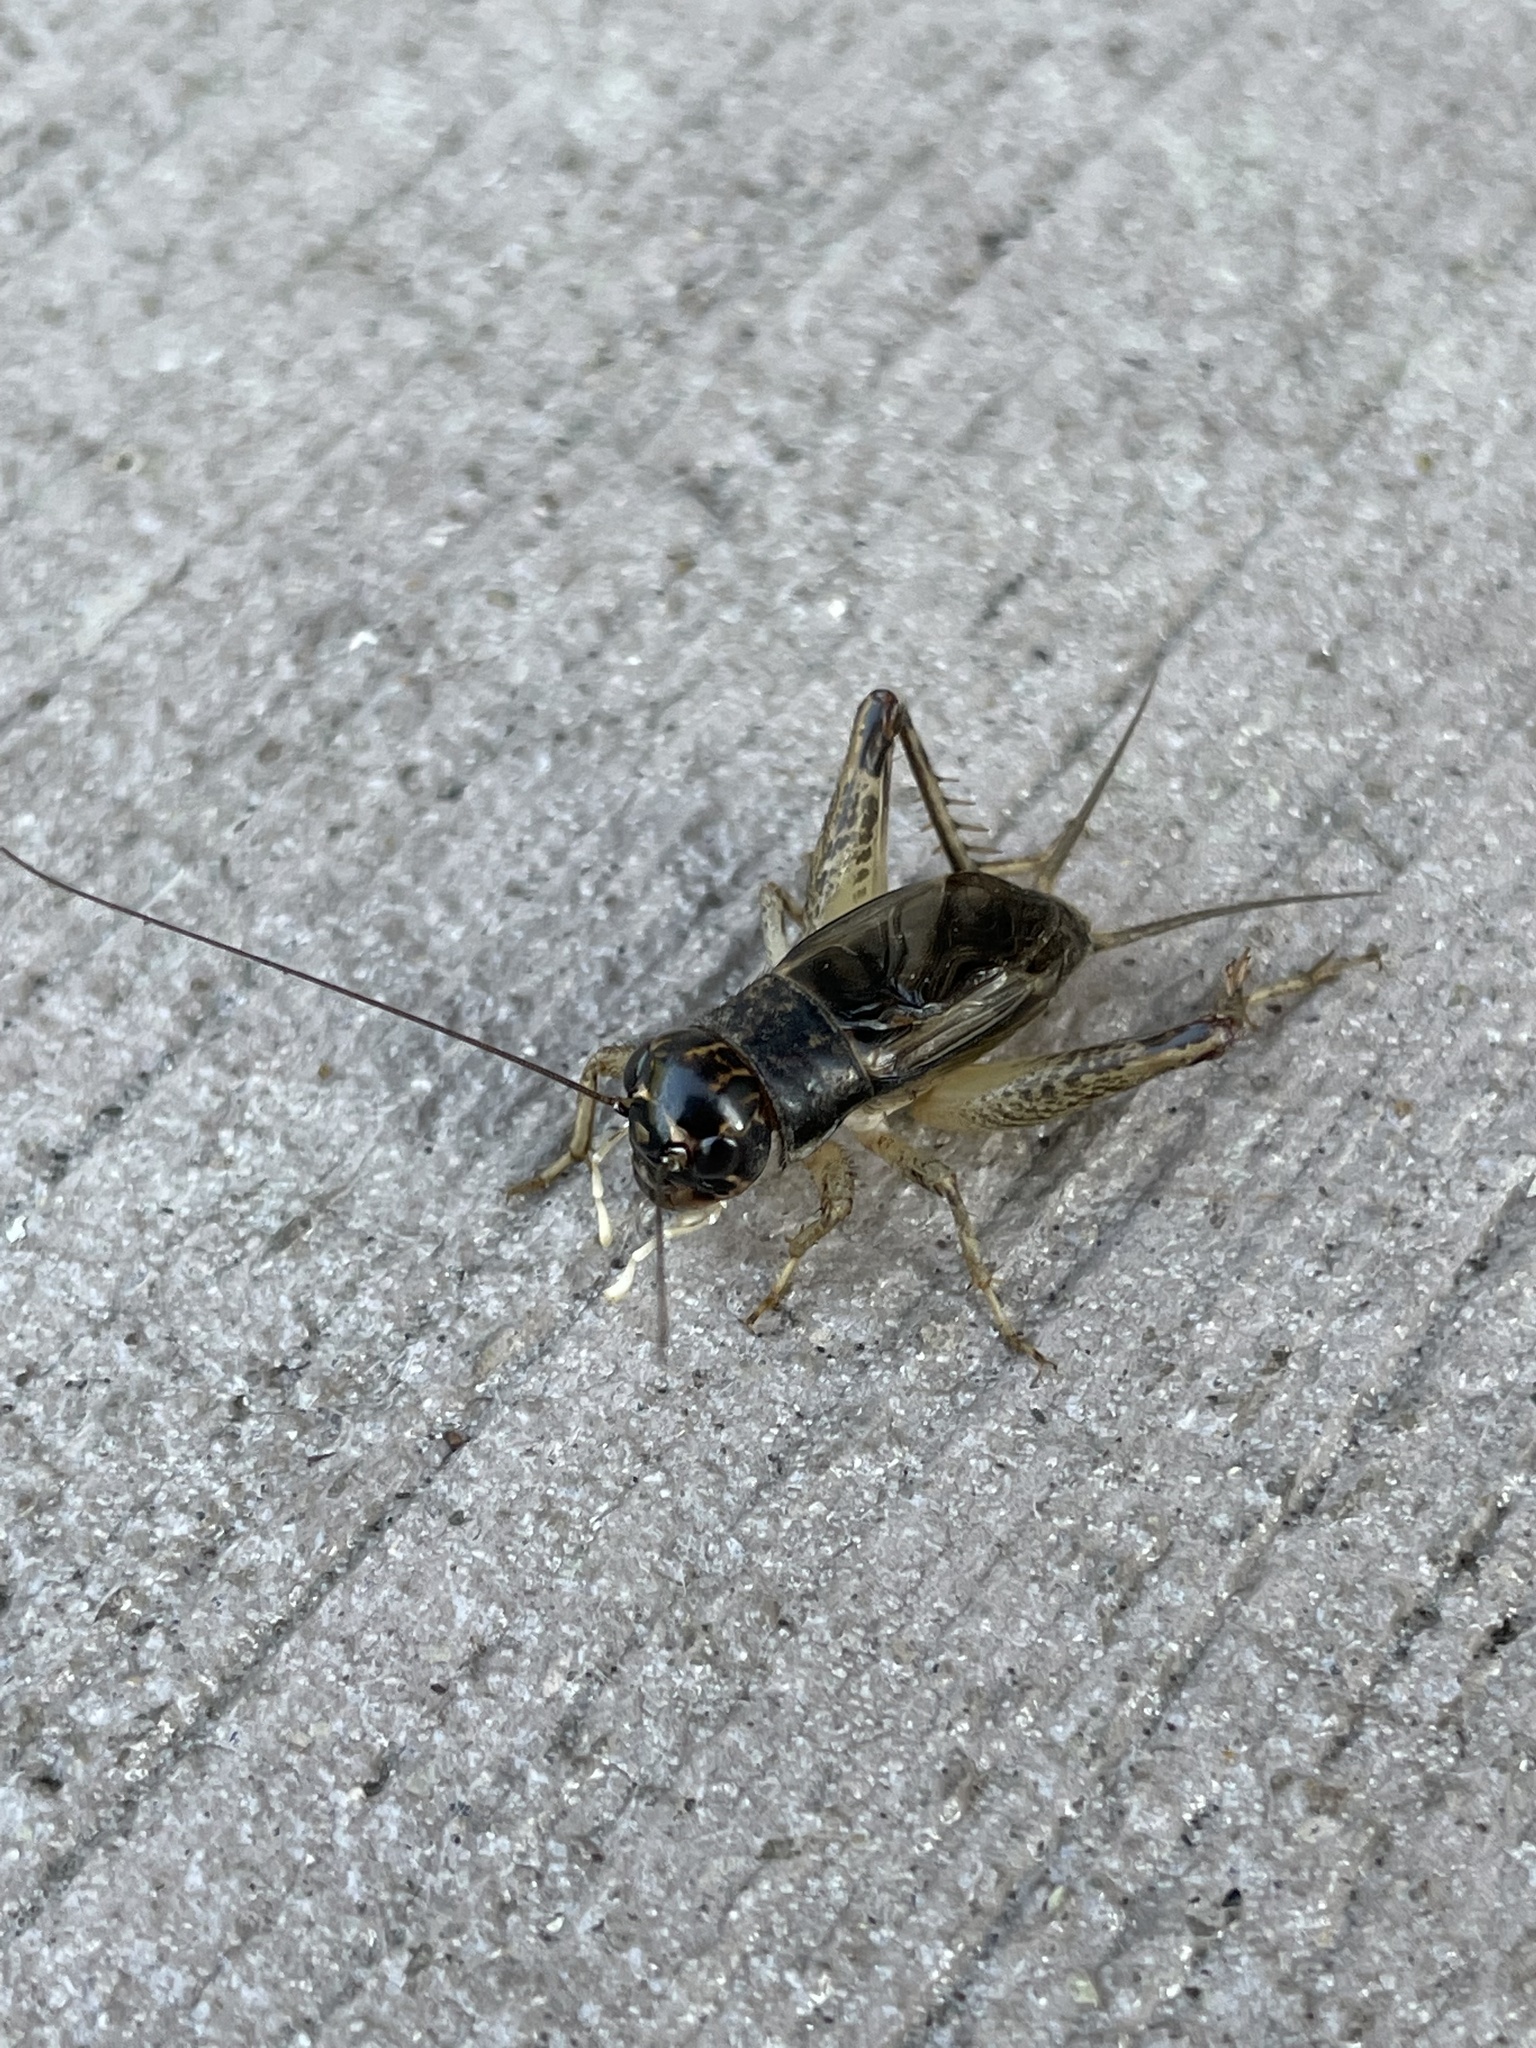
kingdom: Animalia
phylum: Arthropoda
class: Insecta
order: Orthoptera
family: Gryllidae
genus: Velarifictorus
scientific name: Velarifictorus micado
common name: Japanese burrowing cricket
